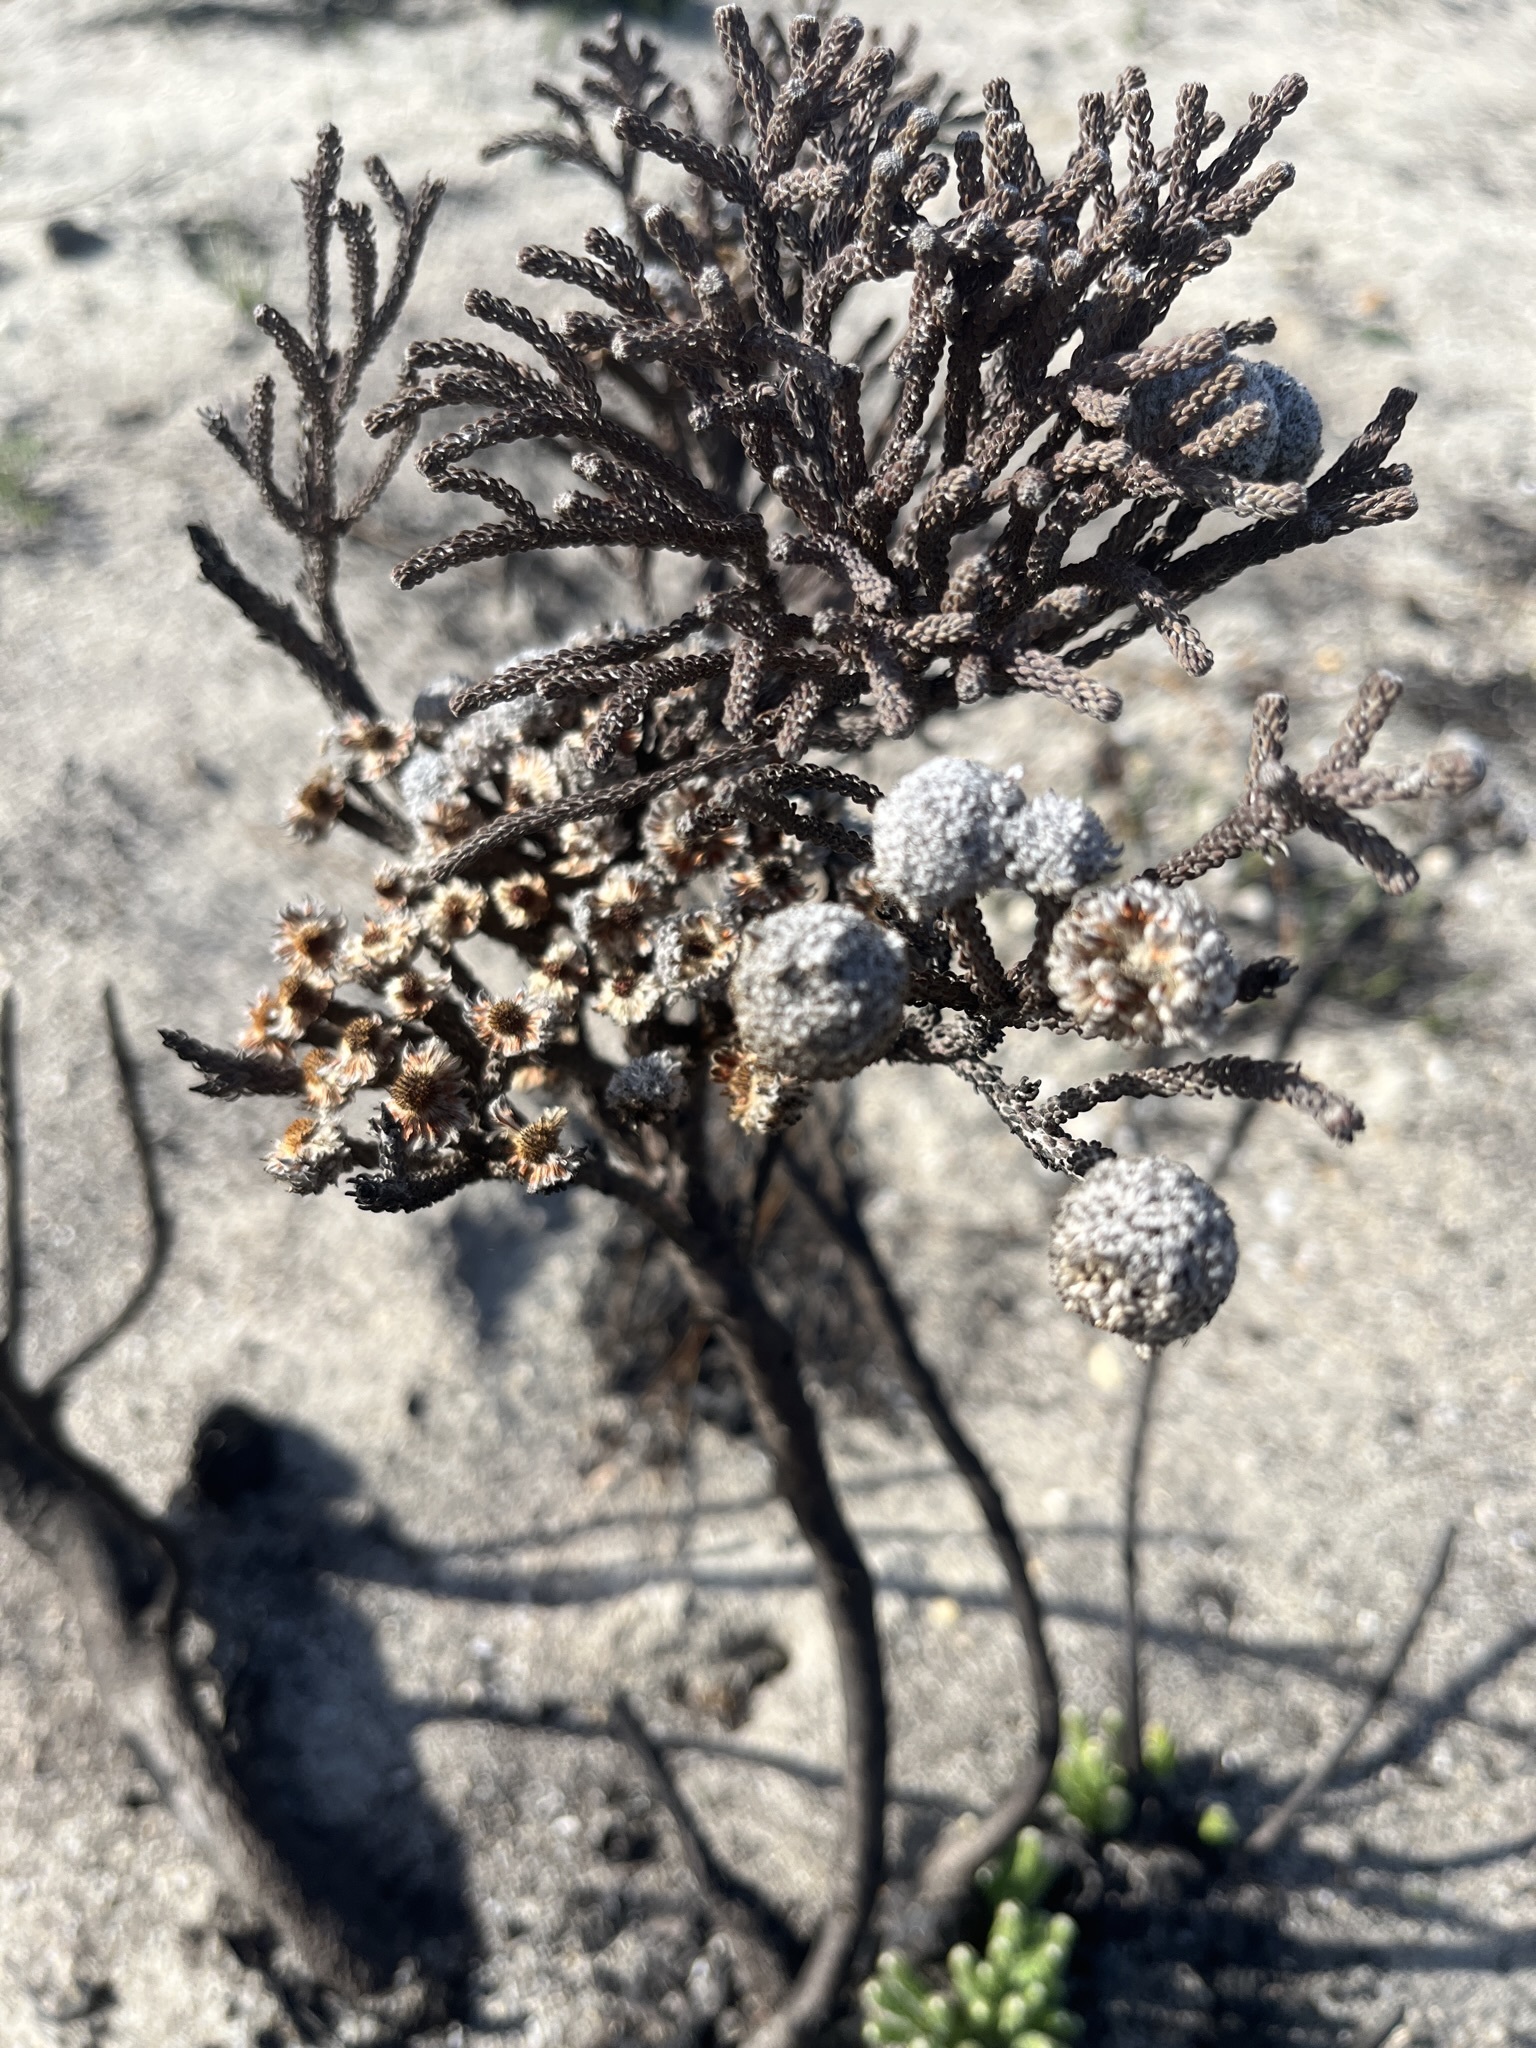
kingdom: Plantae
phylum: Tracheophyta
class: Magnoliopsida
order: Bruniales
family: Bruniaceae
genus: Brunia
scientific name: Brunia laevis
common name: Silver brunia
